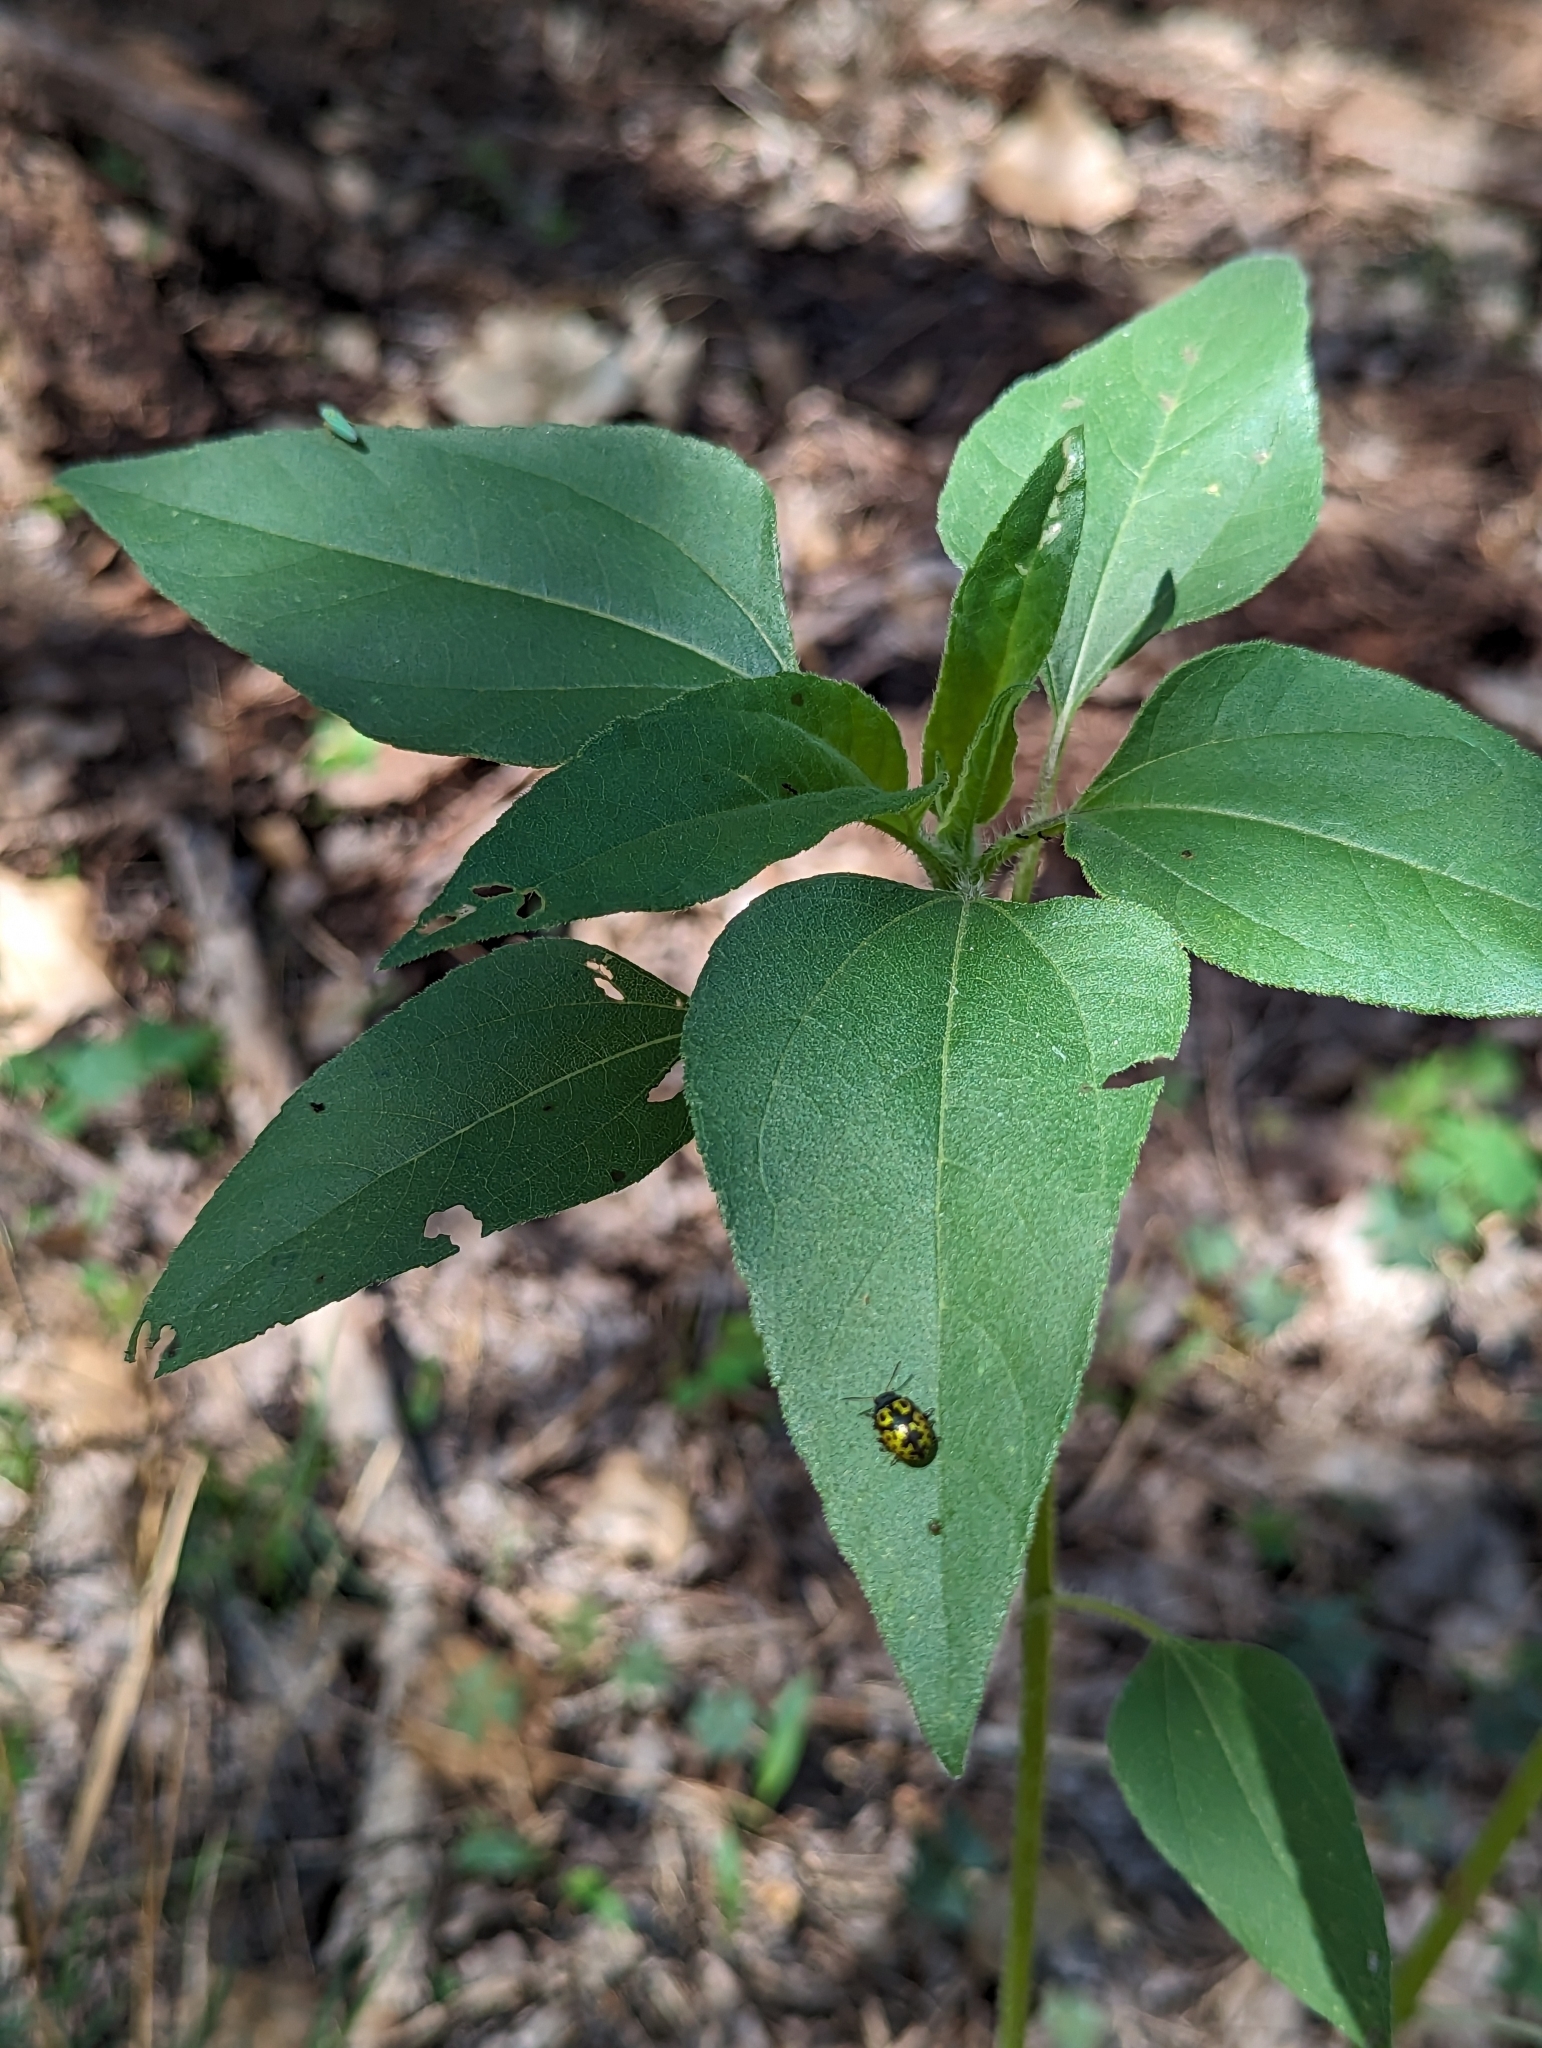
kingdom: Animalia
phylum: Arthropoda
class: Insecta
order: Coleoptera
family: Chrysomelidae
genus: Calligrapha
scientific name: Calligrapha
